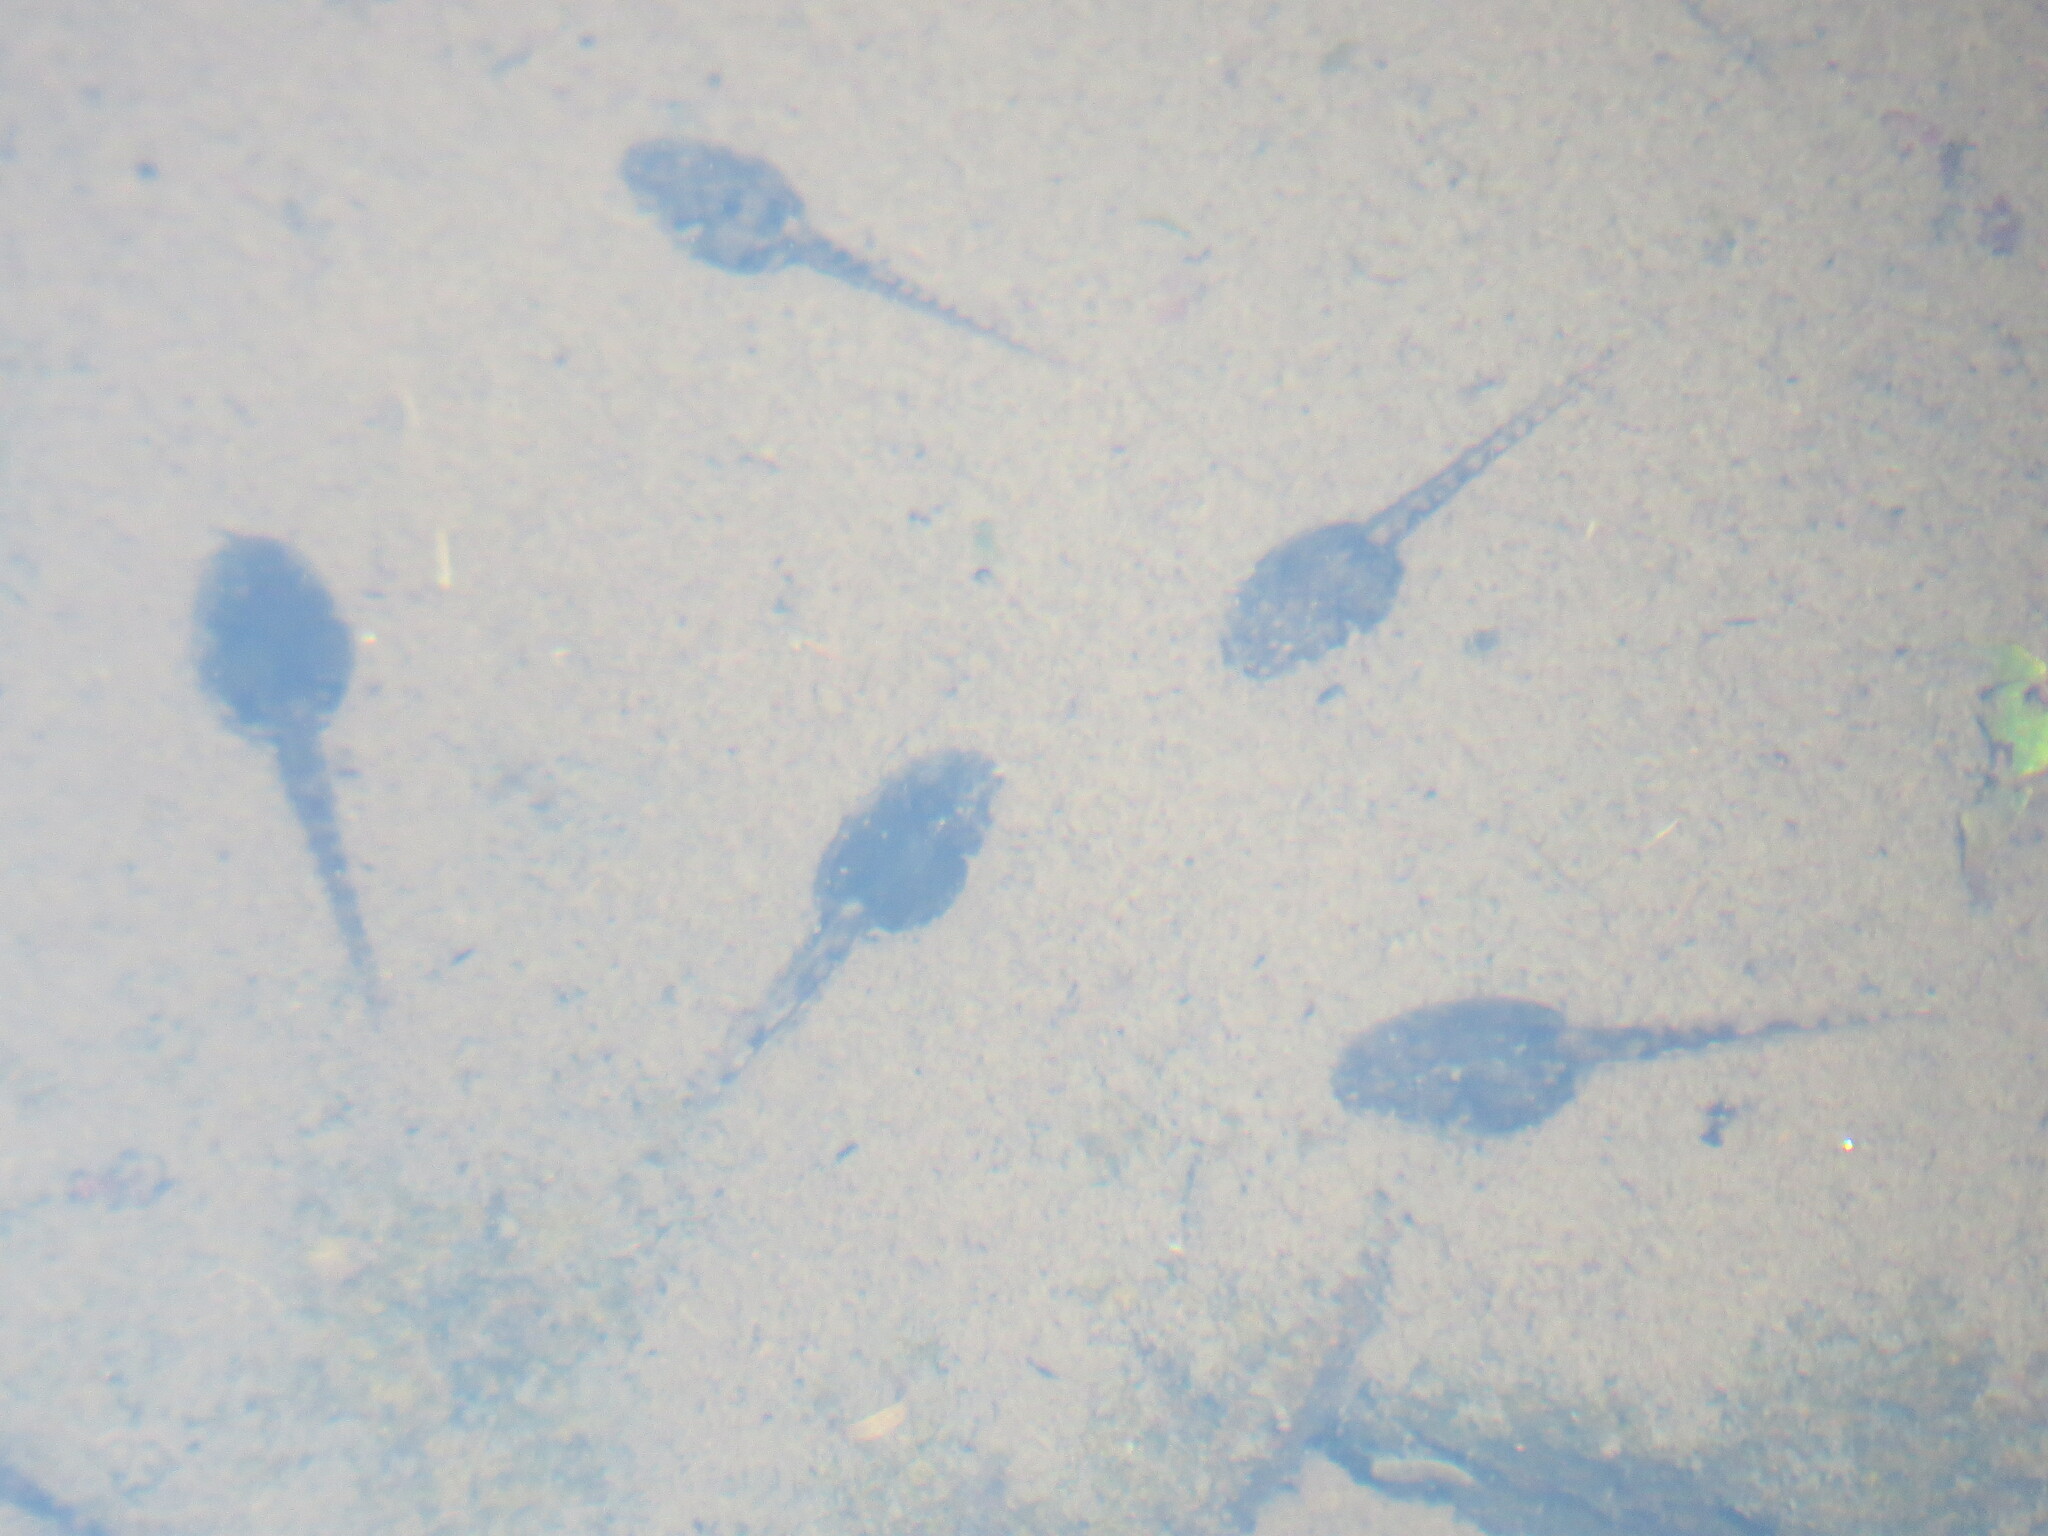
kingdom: Animalia
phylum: Chordata
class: Amphibia
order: Anura
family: Hylidae
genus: Boana
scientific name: Boana pulchella
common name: Montevideo treefrog
